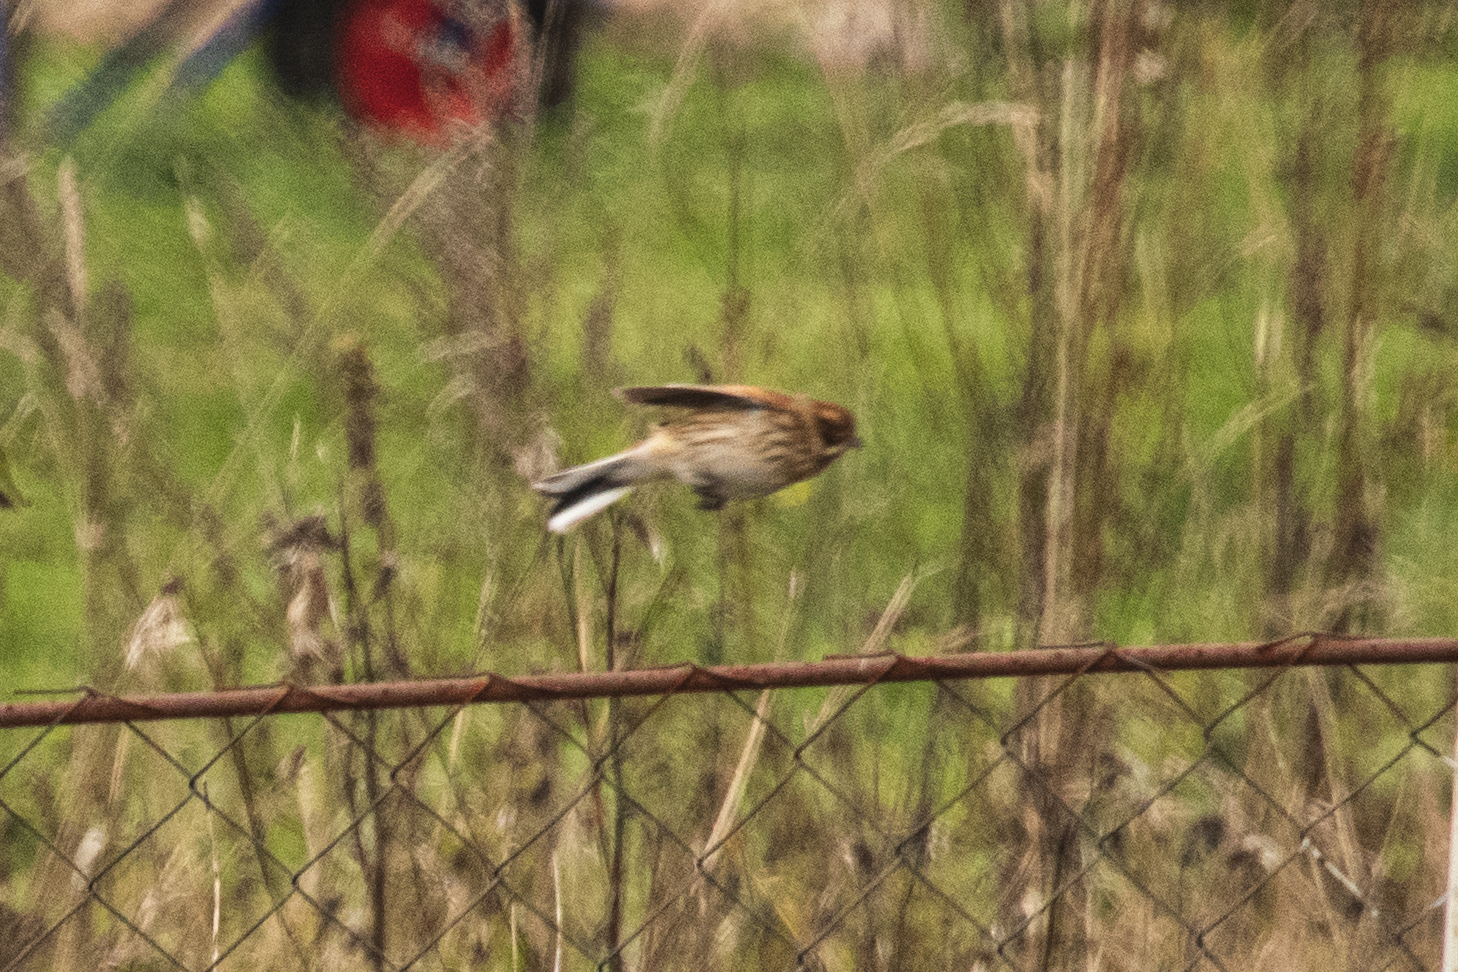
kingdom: Animalia
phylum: Chordata
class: Aves
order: Passeriformes
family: Emberizidae
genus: Emberiza
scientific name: Emberiza schoeniclus
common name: Reed bunting
